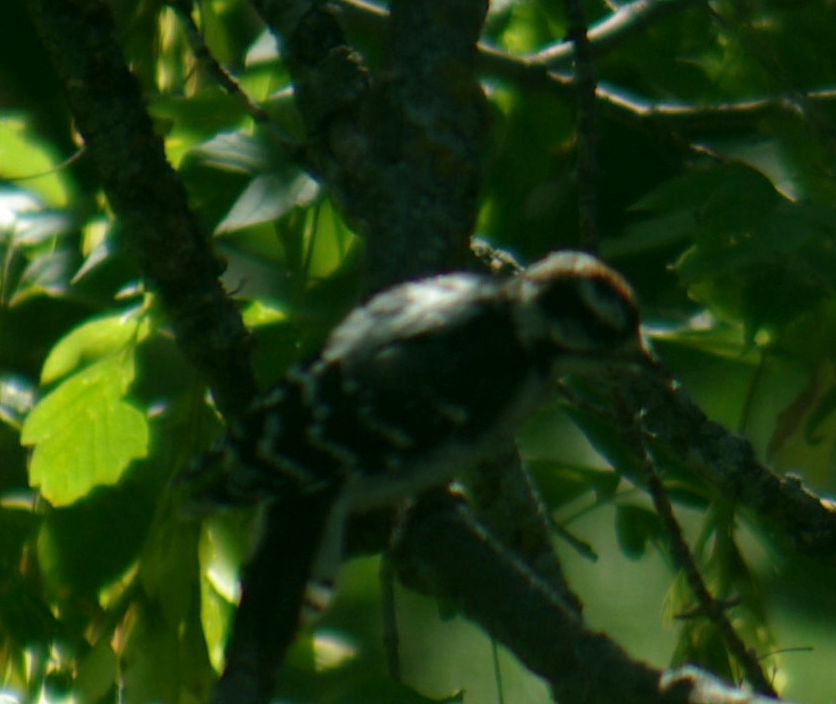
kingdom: Animalia
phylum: Chordata
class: Aves
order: Piciformes
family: Picidae
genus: Dryobates
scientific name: Dryobates pubescens
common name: Downy woodpecker
